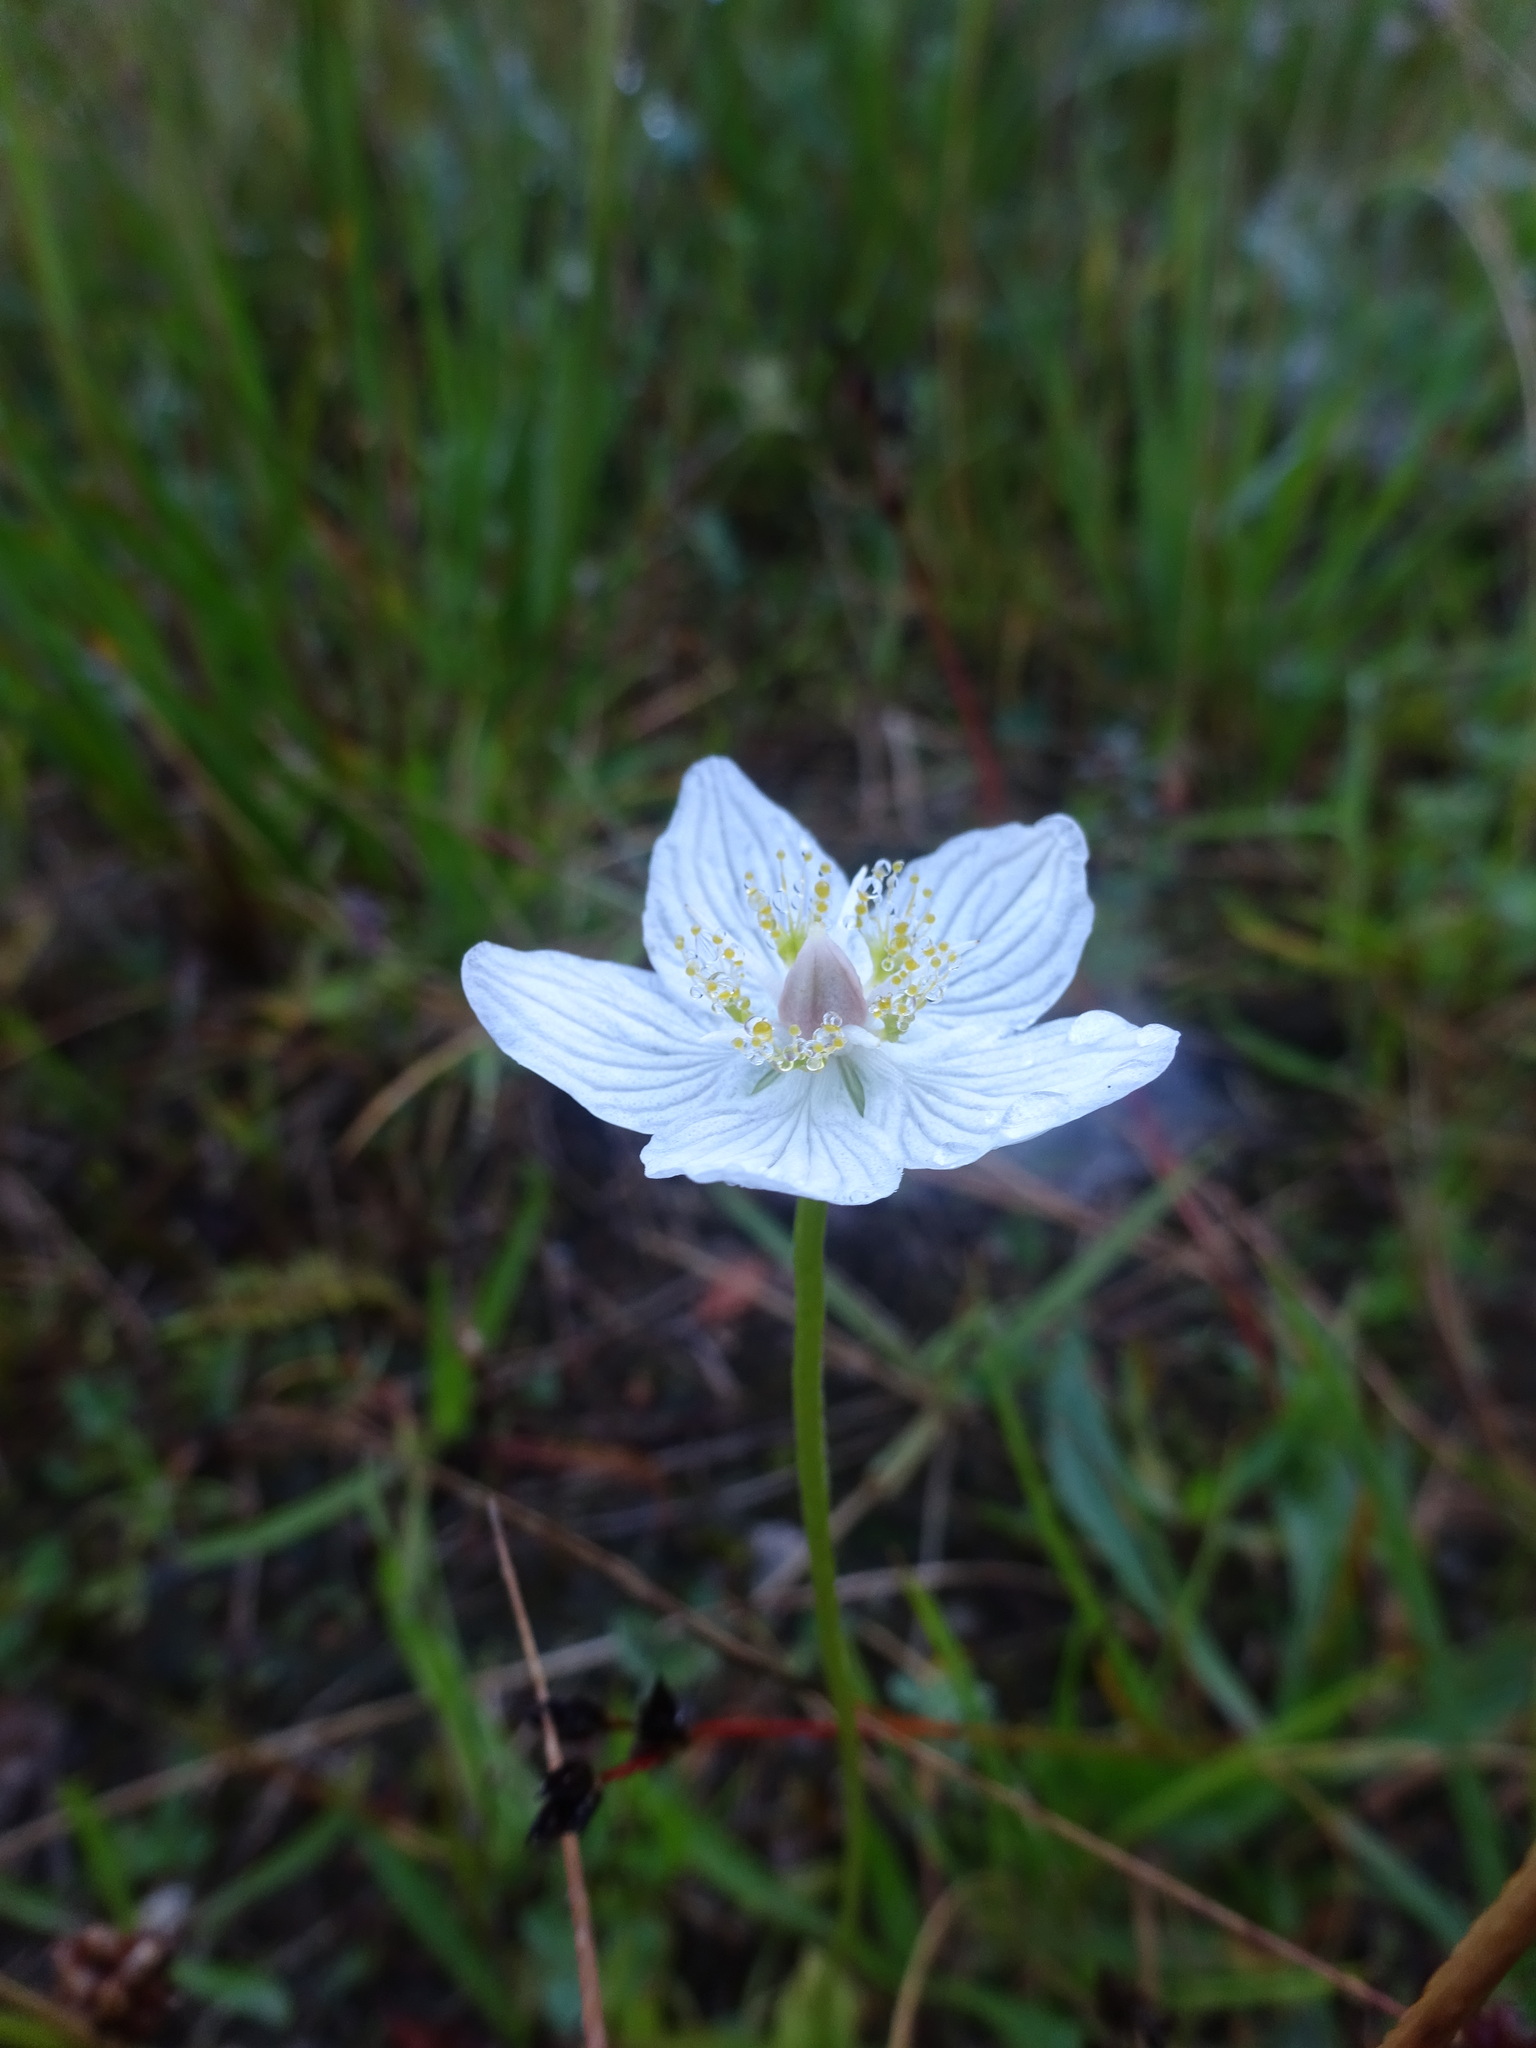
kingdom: Plantae
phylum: Tracheophyta
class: Magnoliopsida
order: Celastrales
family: Parnassiaceae
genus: Parnassia
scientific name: Parnassia palustris
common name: Grass-of-parnassus
